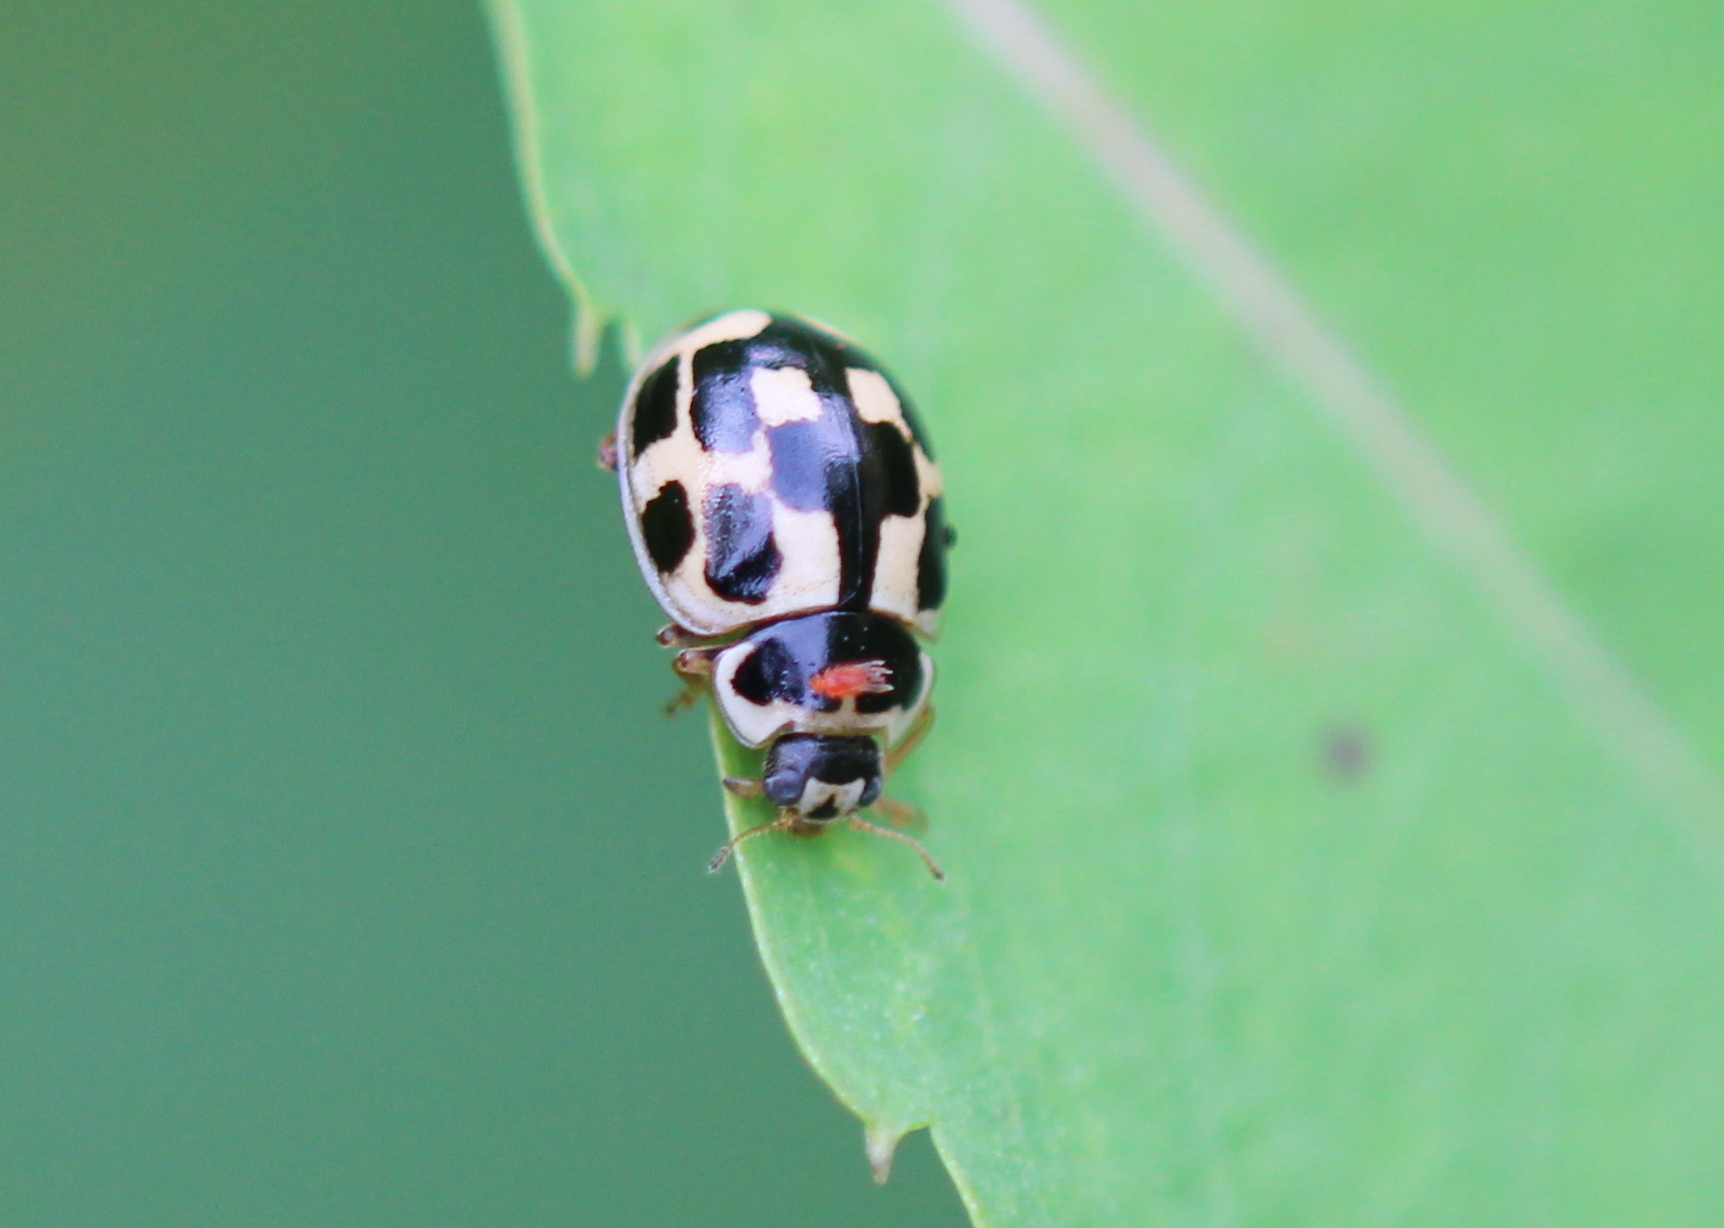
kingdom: Animalia
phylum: Arthropoda
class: Insecta
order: Coleoptera
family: Coccinellidae
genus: Propylaea
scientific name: Propylaea quatuordecimpunctata
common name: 14-spotted ladybird beetle
